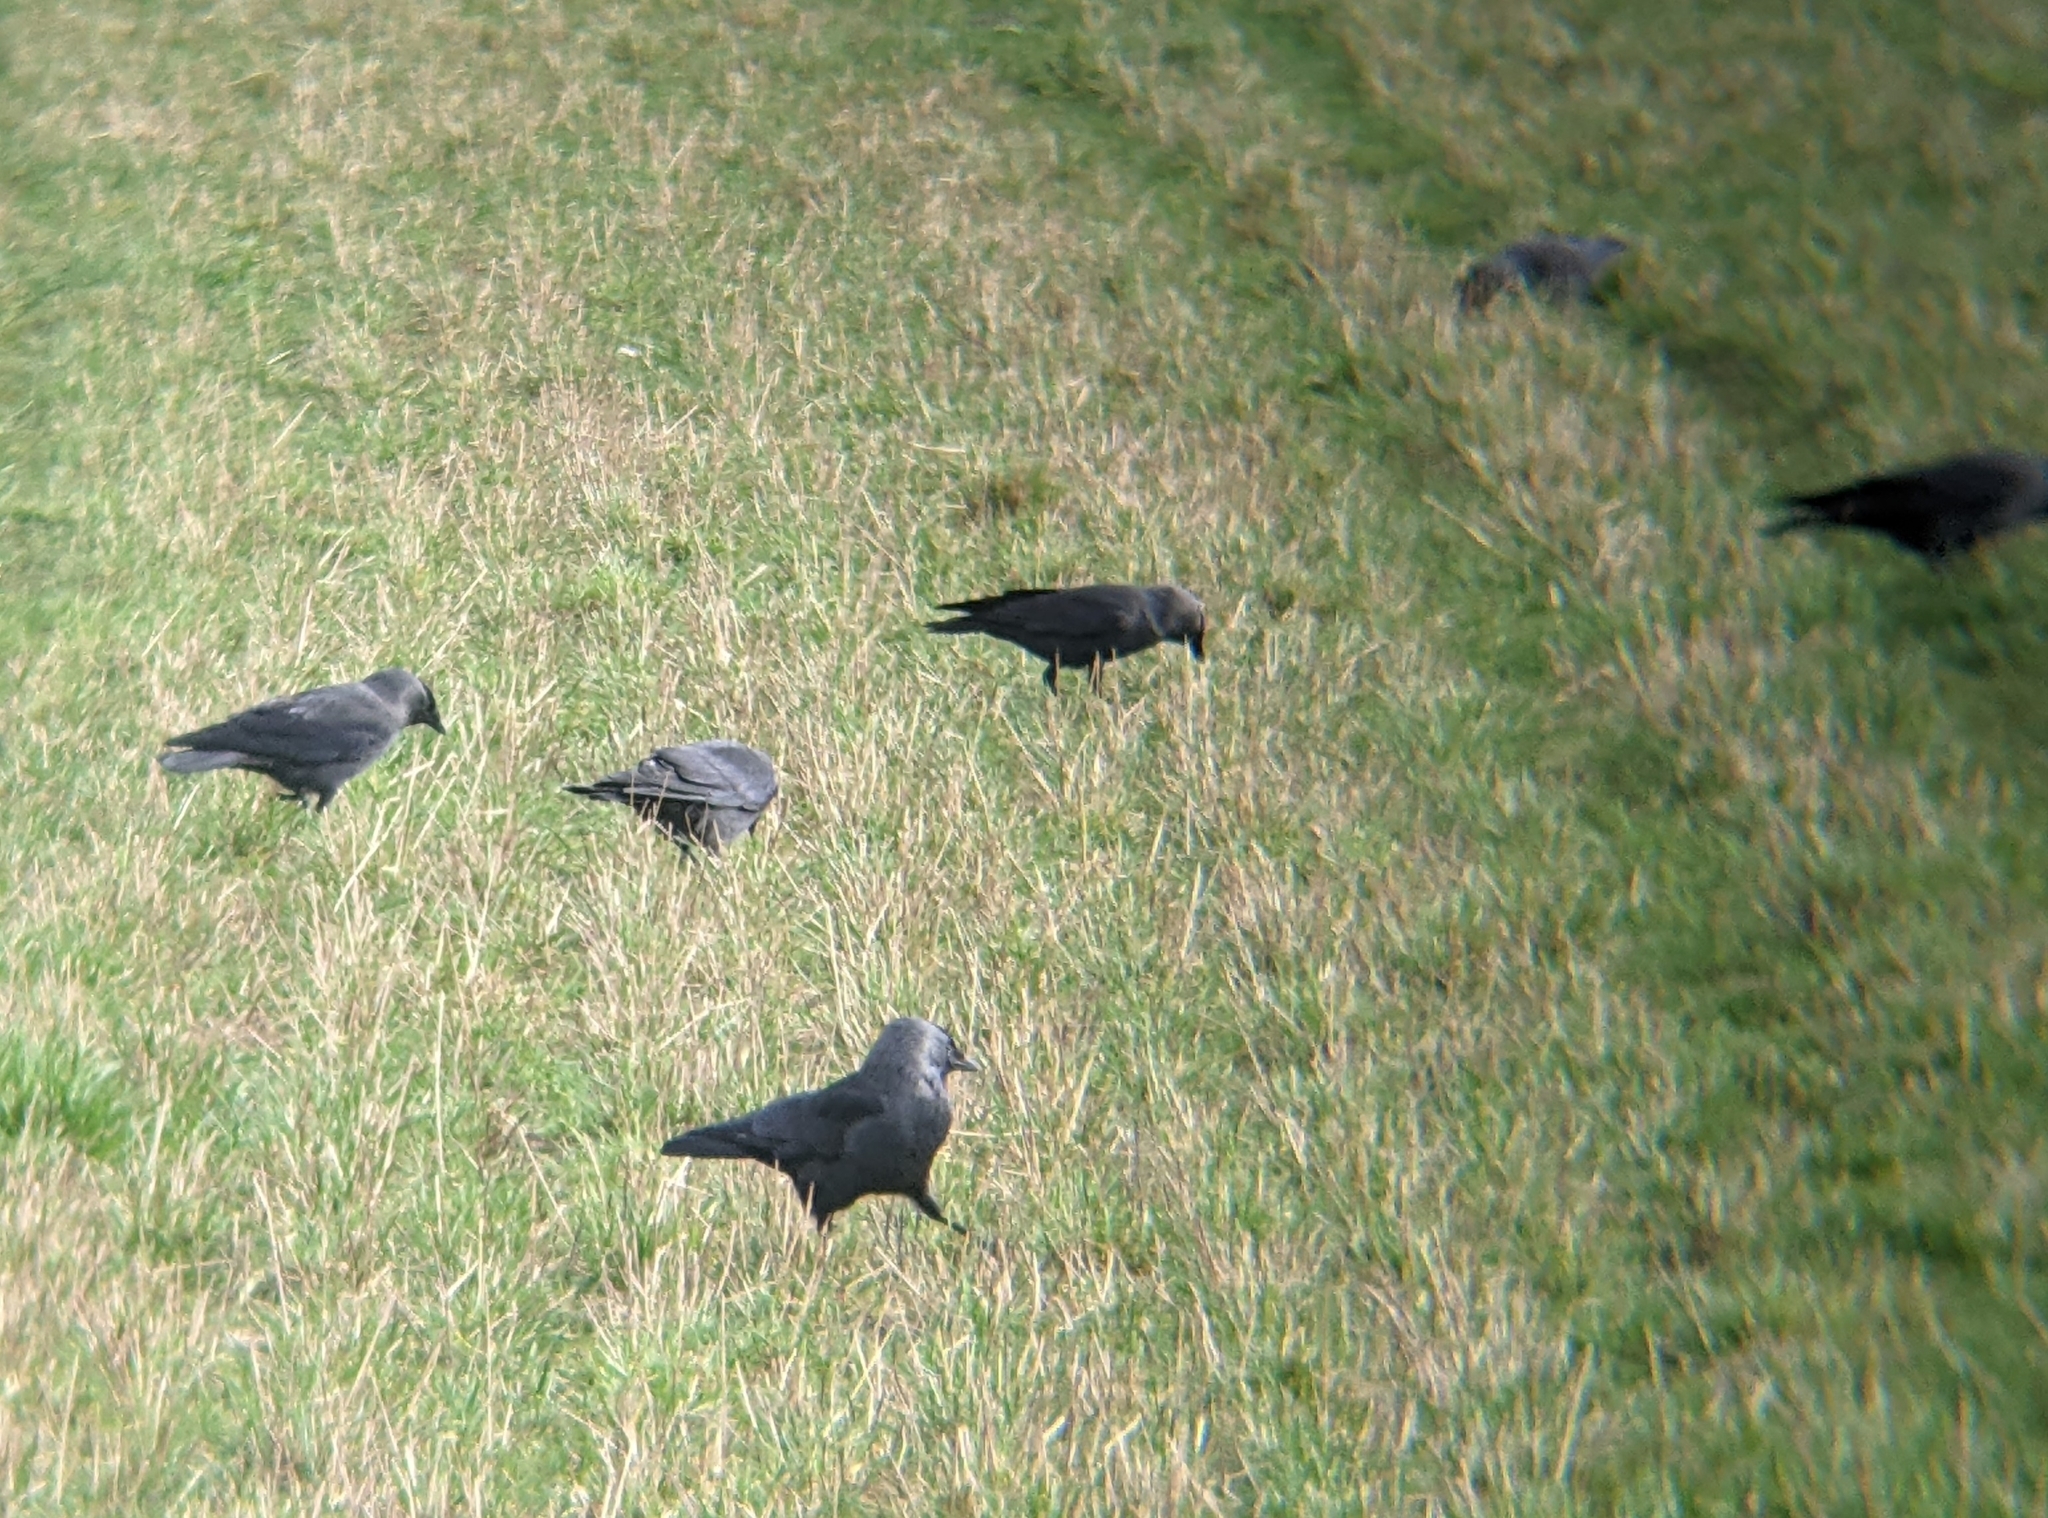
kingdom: Animalia
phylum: Chordata
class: Aves
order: Passeriformes
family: Corvidae
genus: Coloeus
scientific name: Coloeus monedula
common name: Western jackdaw
